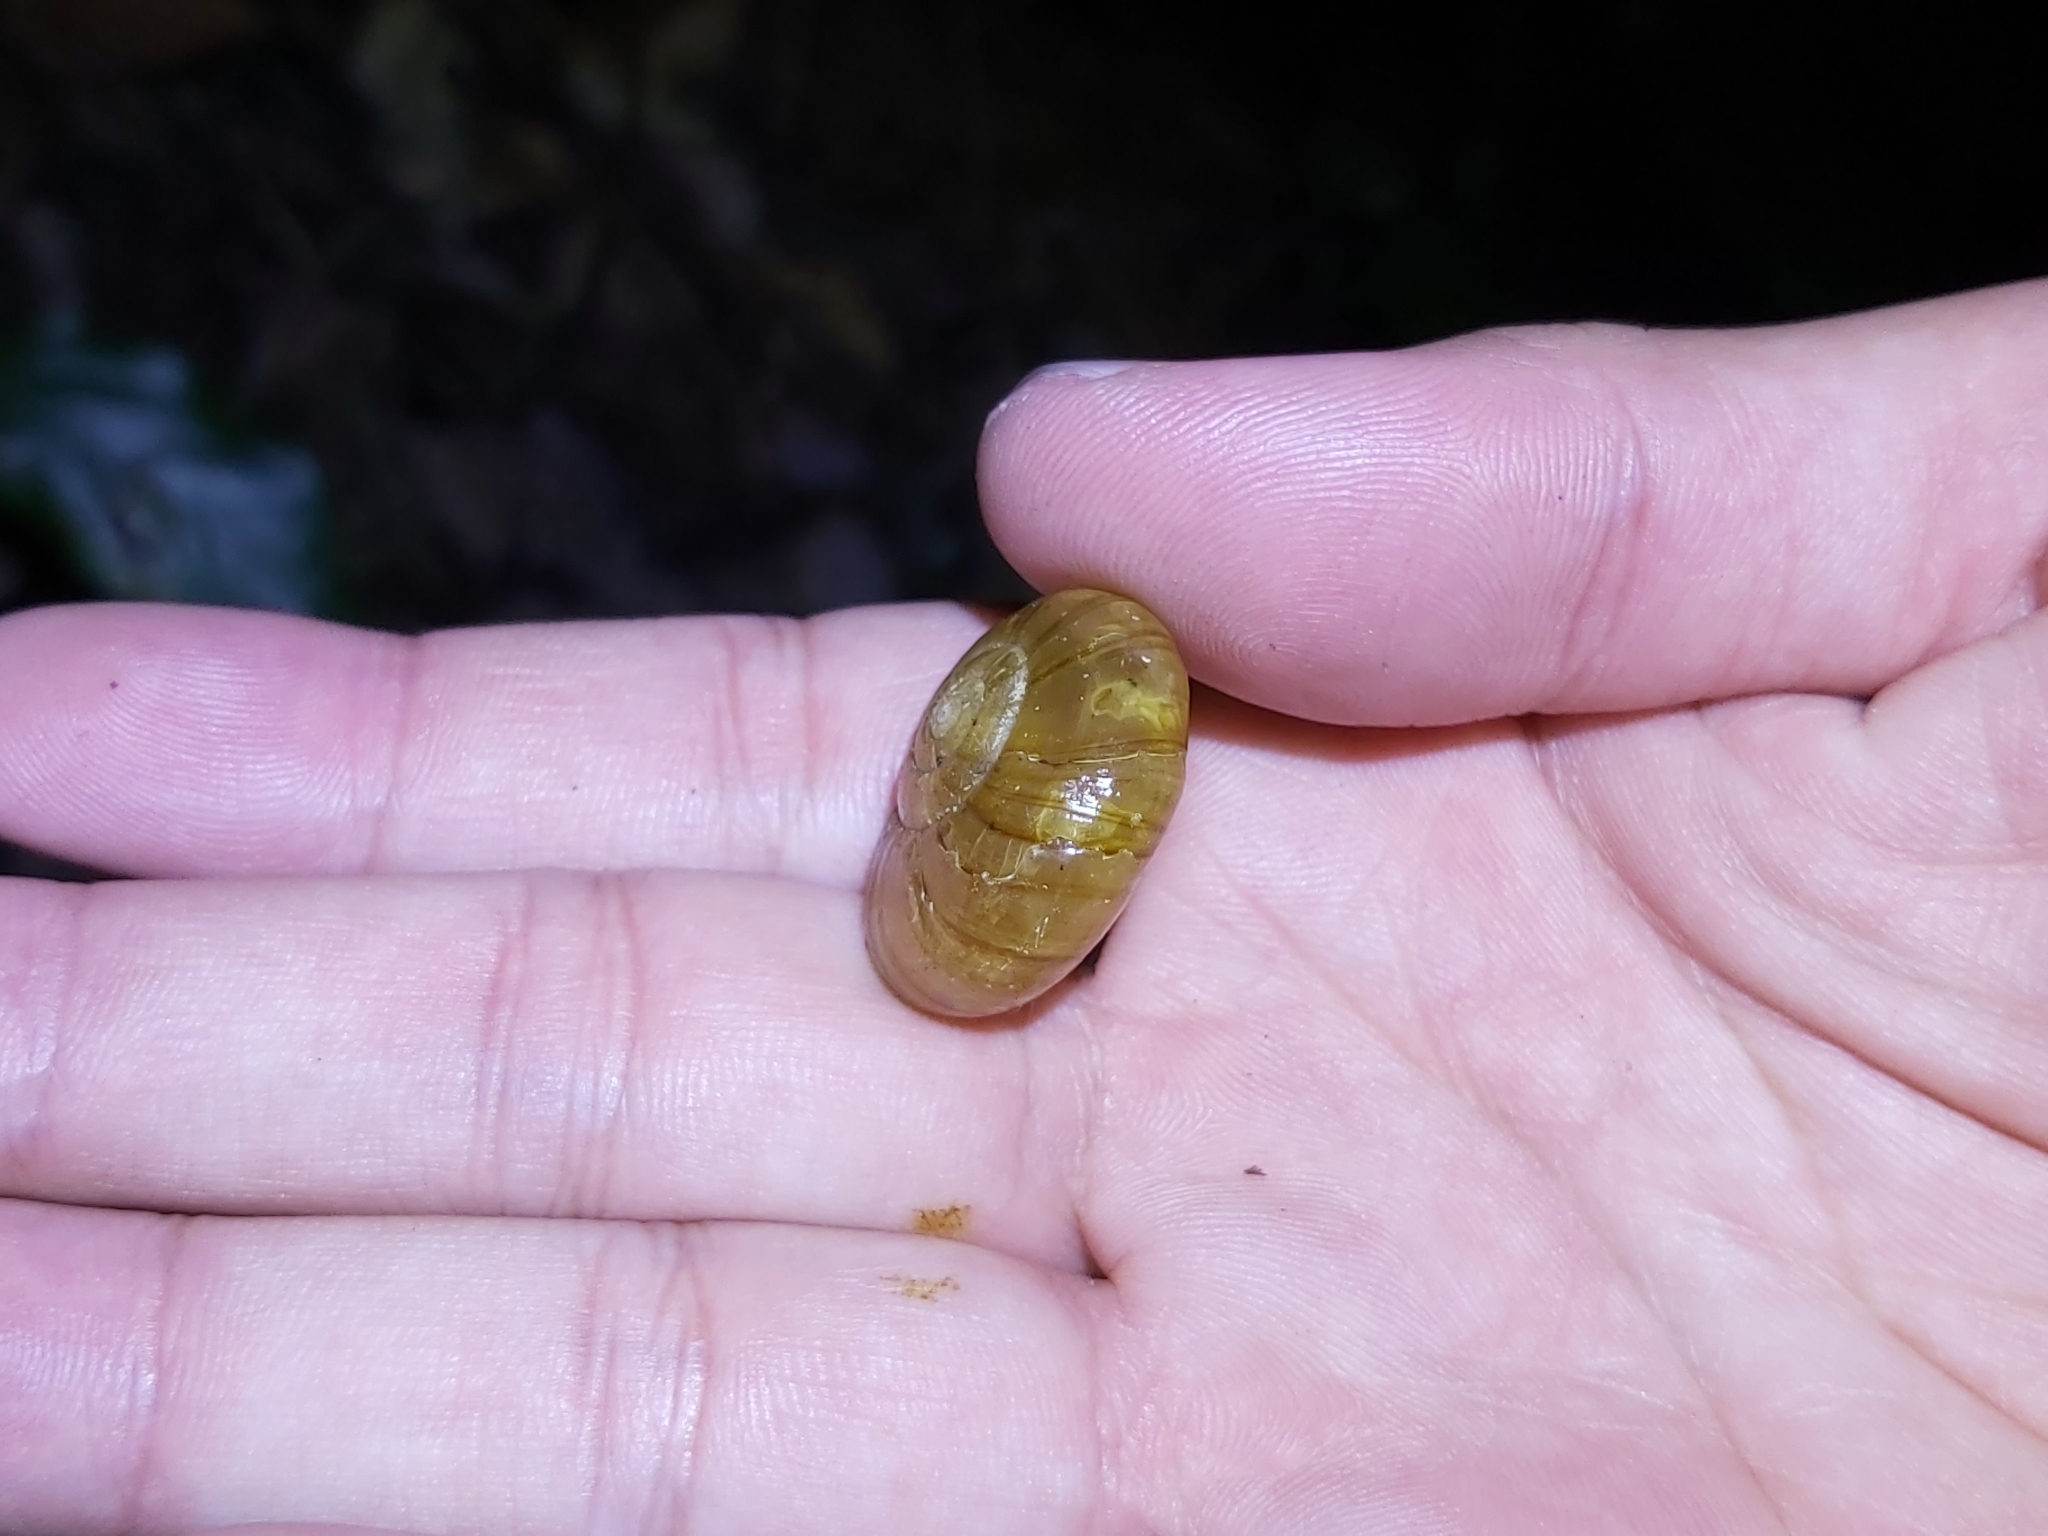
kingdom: Animalia
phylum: Mollusca
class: Gastropoda
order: Stylommatophora
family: Rhytididae
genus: Murphitella
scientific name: Murphitella franklandiensis
